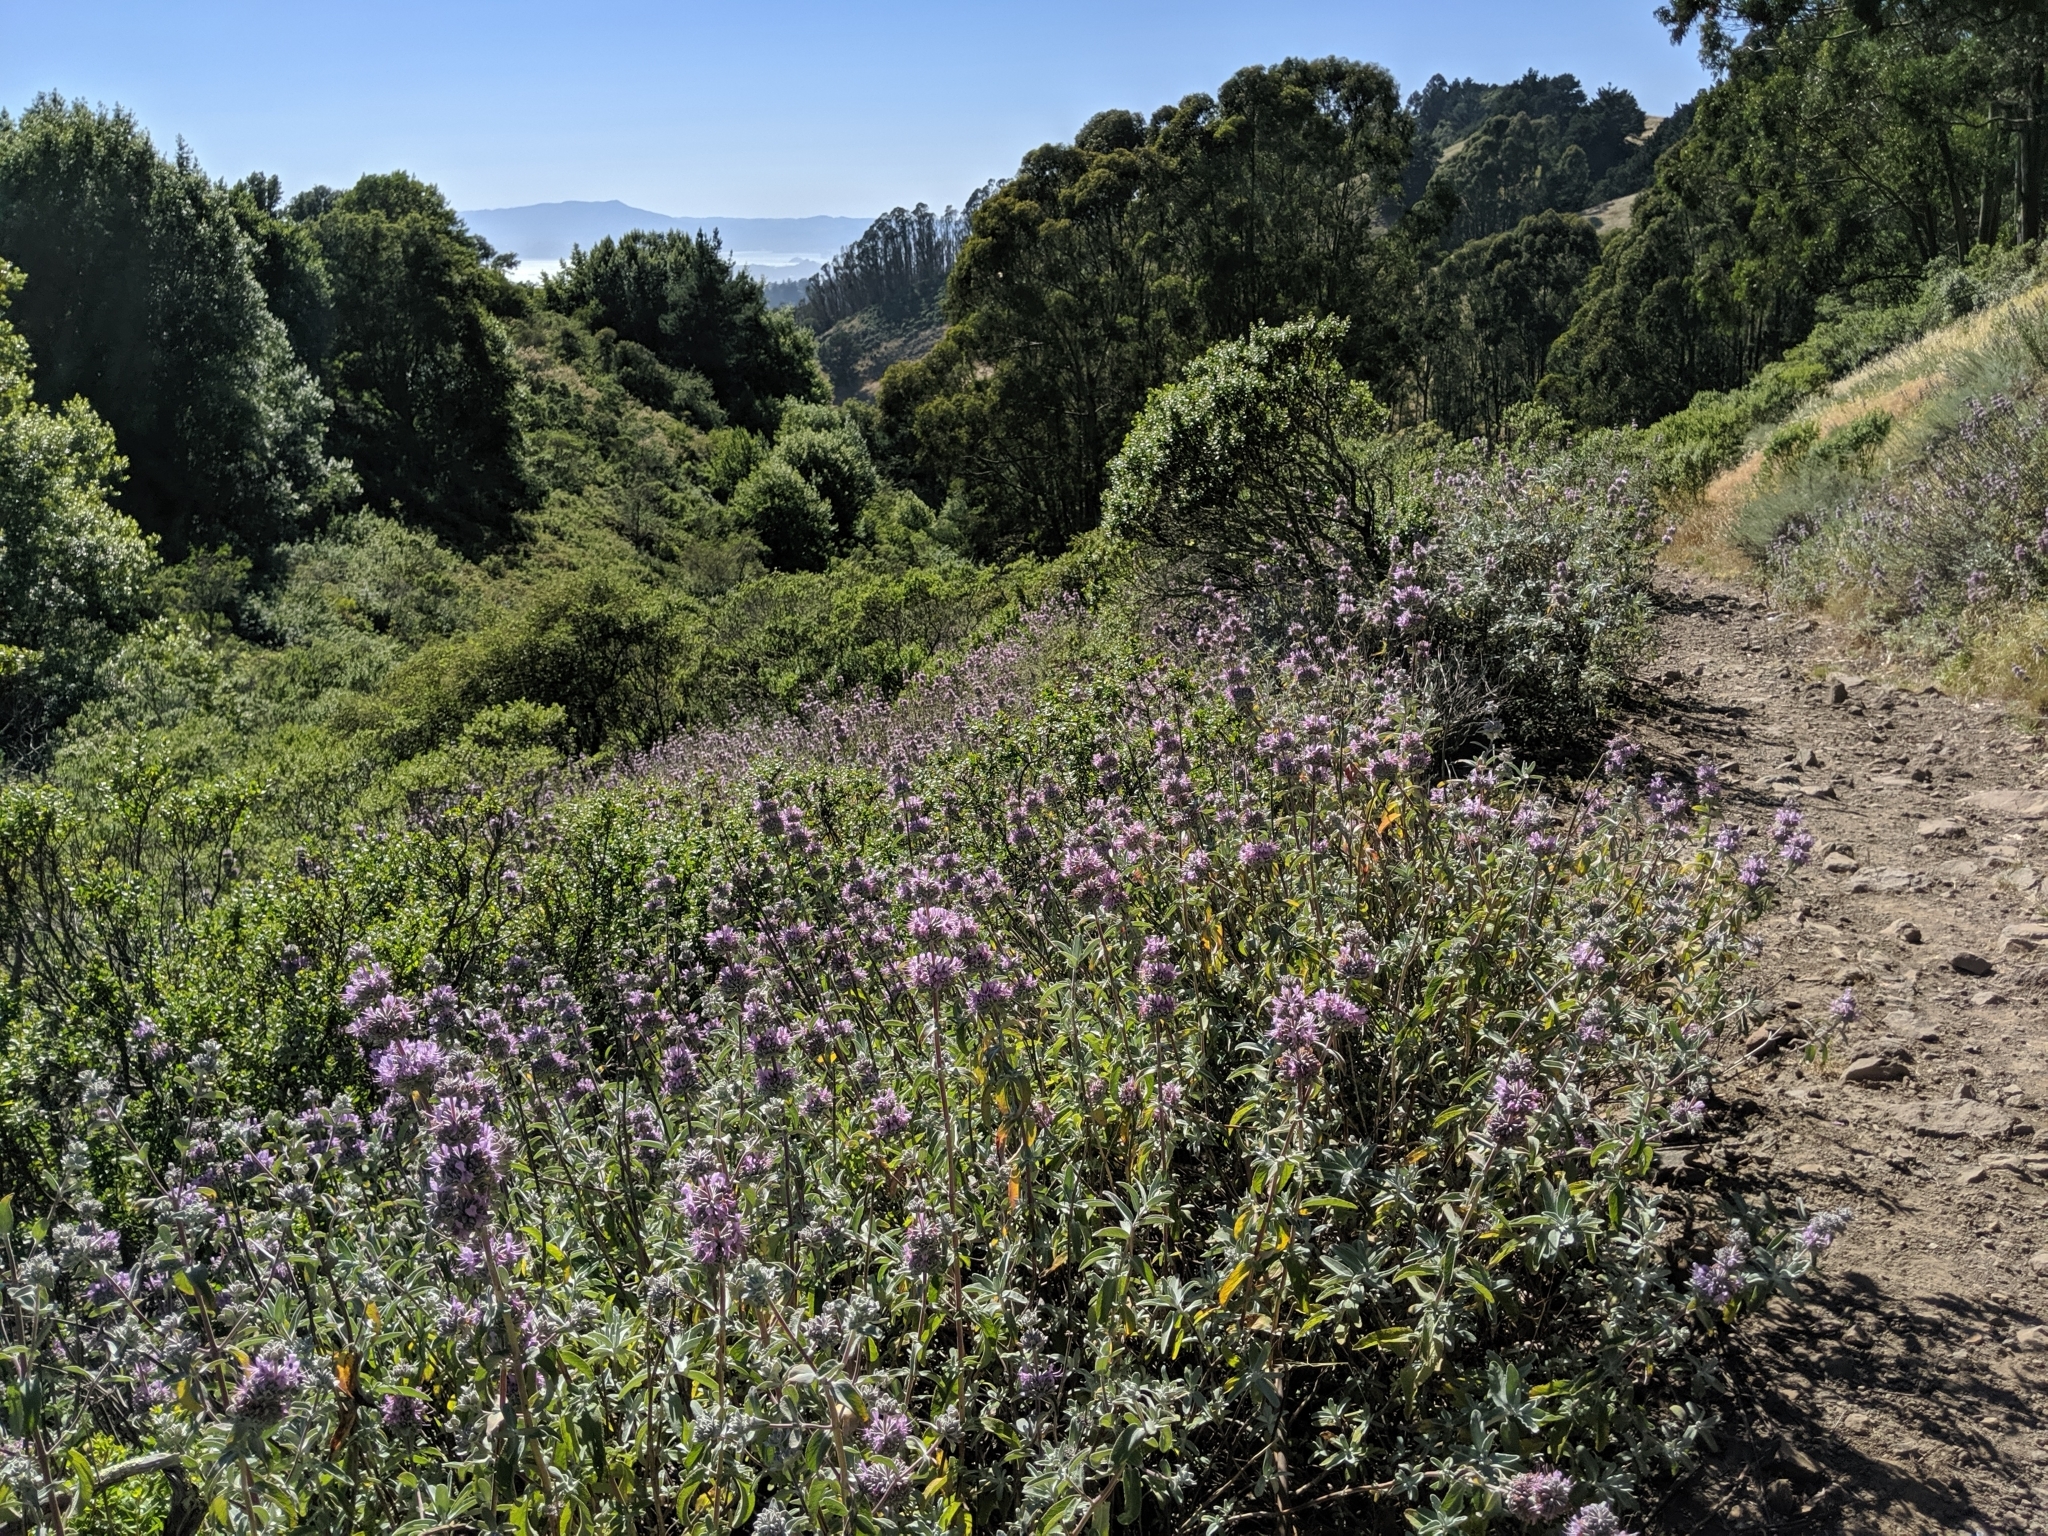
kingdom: Plantae
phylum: Tracheophyta
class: Magnoliopsida
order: Lamiales
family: Lamiaceae
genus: Salvia
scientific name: Salvia leucophylla
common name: Purple sage
